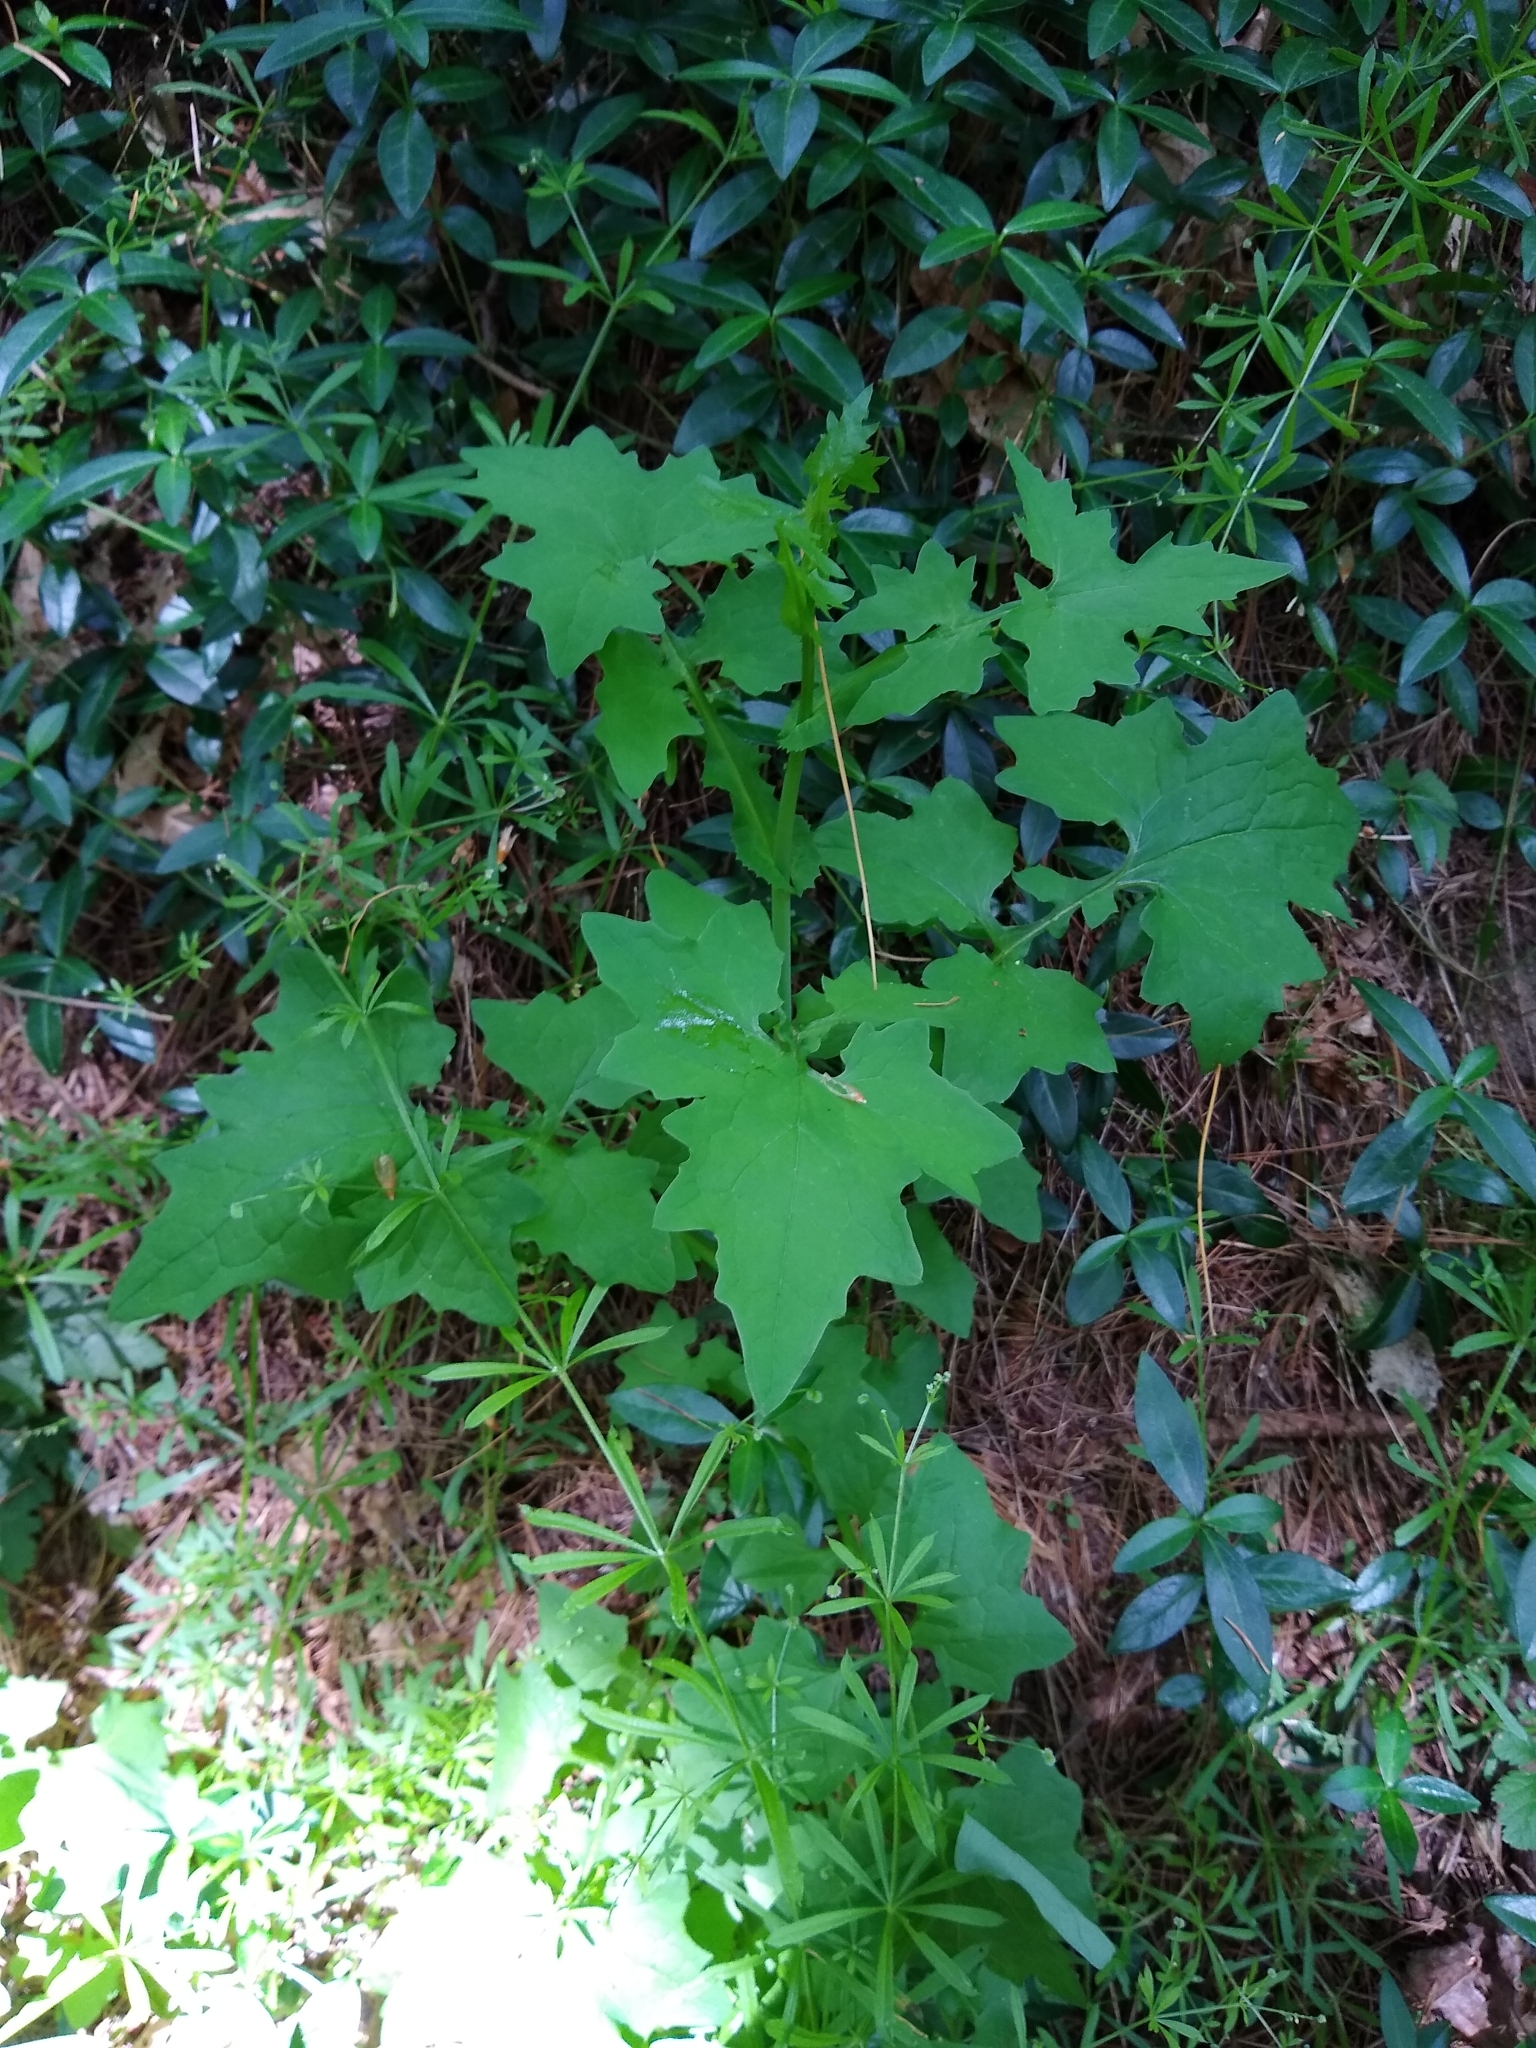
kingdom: Plantae
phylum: Tracheophyta
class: Magnoliopsida
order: Asterales
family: Asteraceae
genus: Mycelis
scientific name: Mycelis muralis
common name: Wall lettuce
